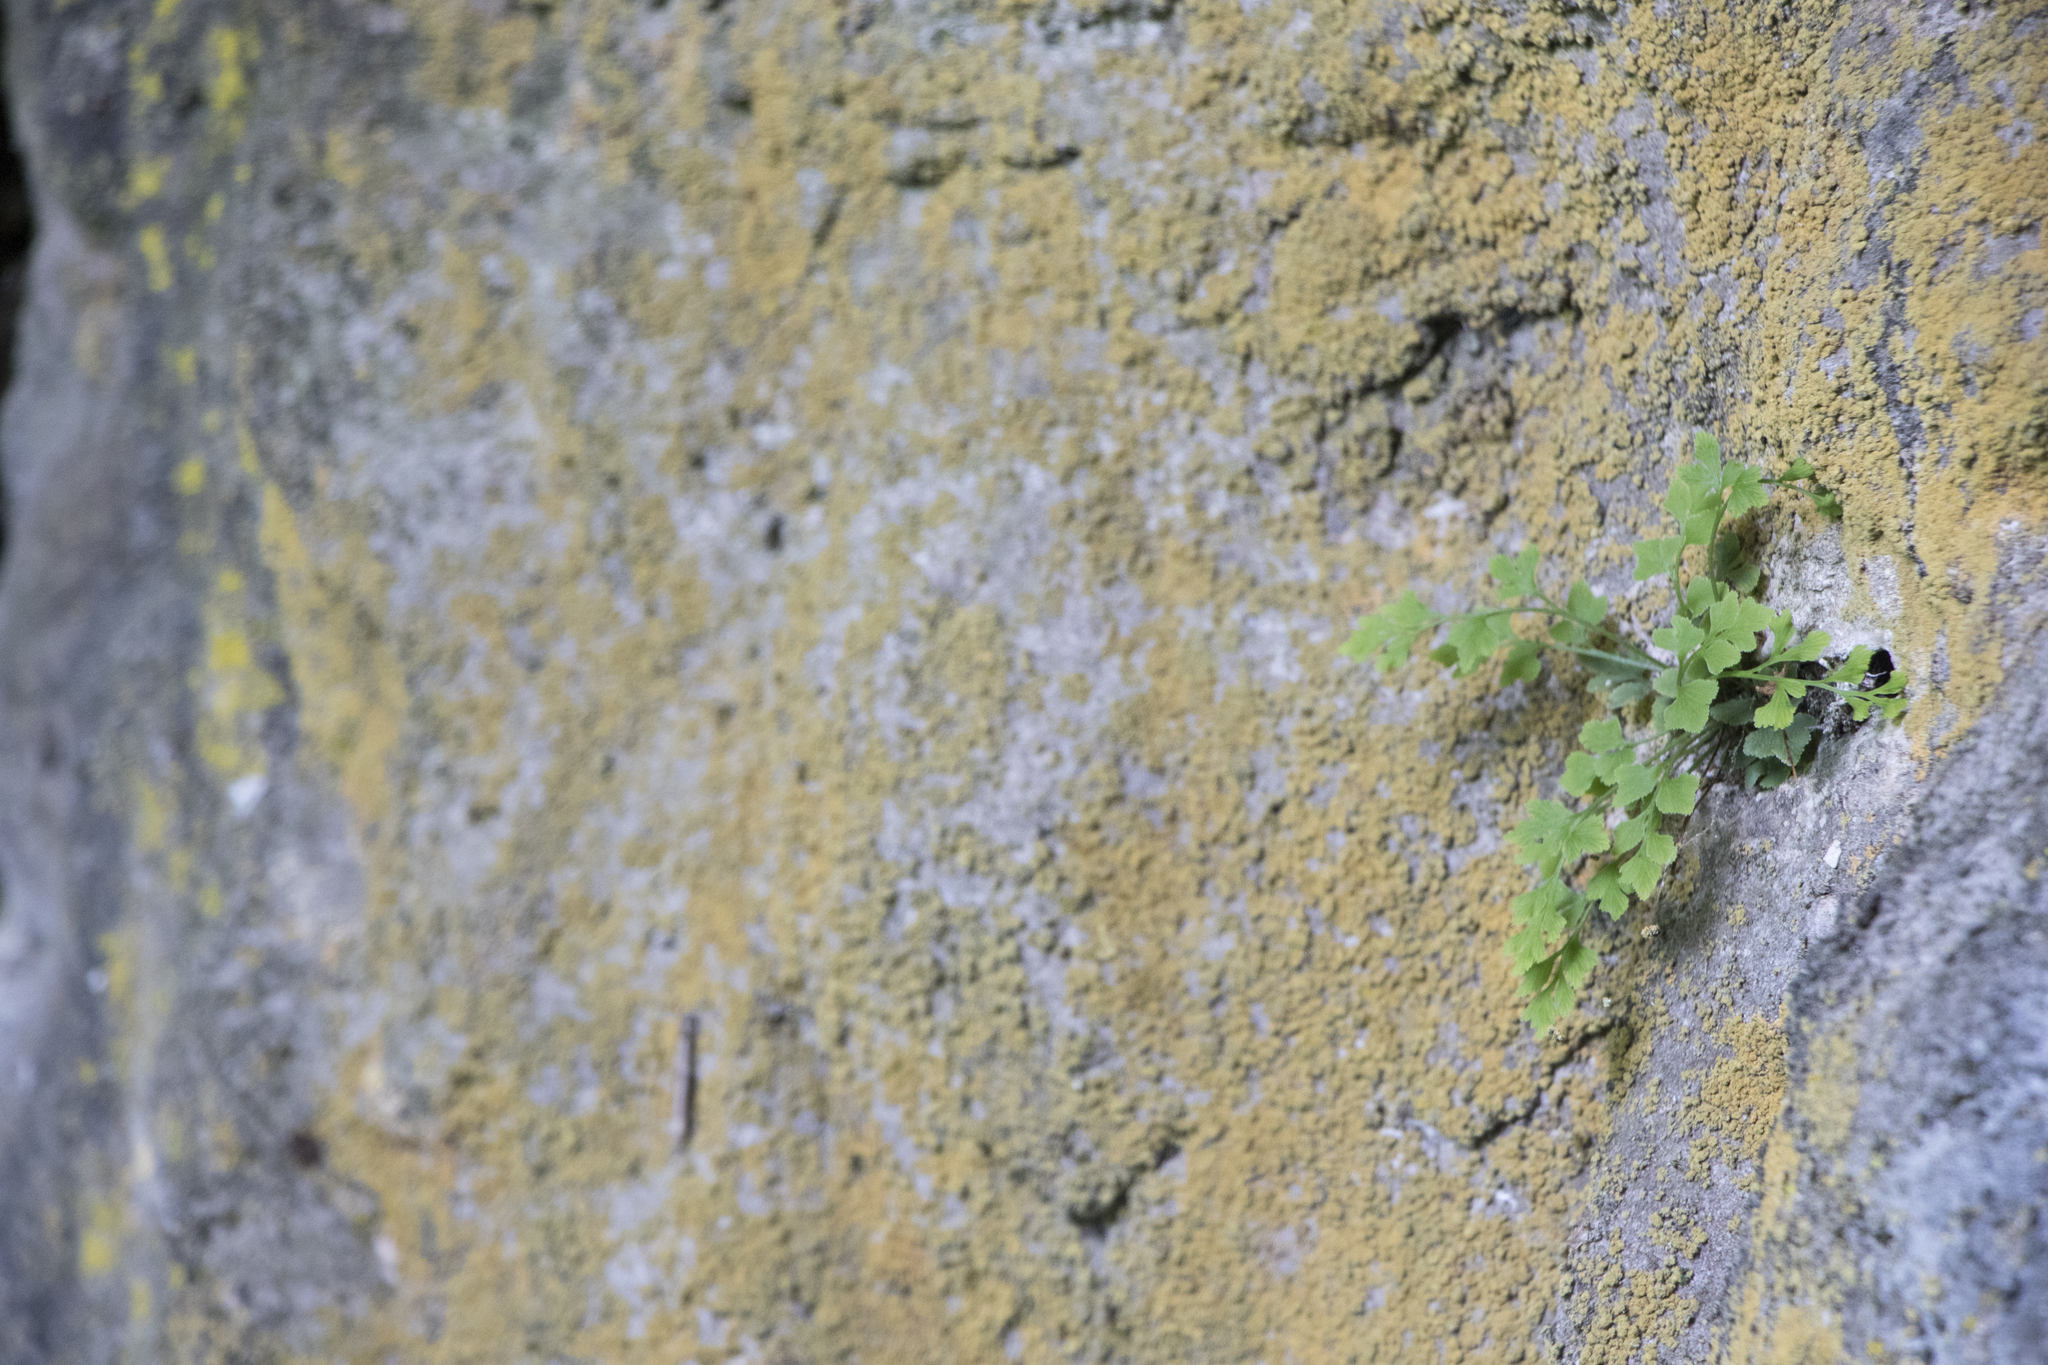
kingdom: Plantae
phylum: Tracheophyta
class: Polypodiopsida
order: Polypodiales
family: Aspleniaceae
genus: Asplenium
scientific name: Asplenium ruta-muraria
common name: Wall-rue
